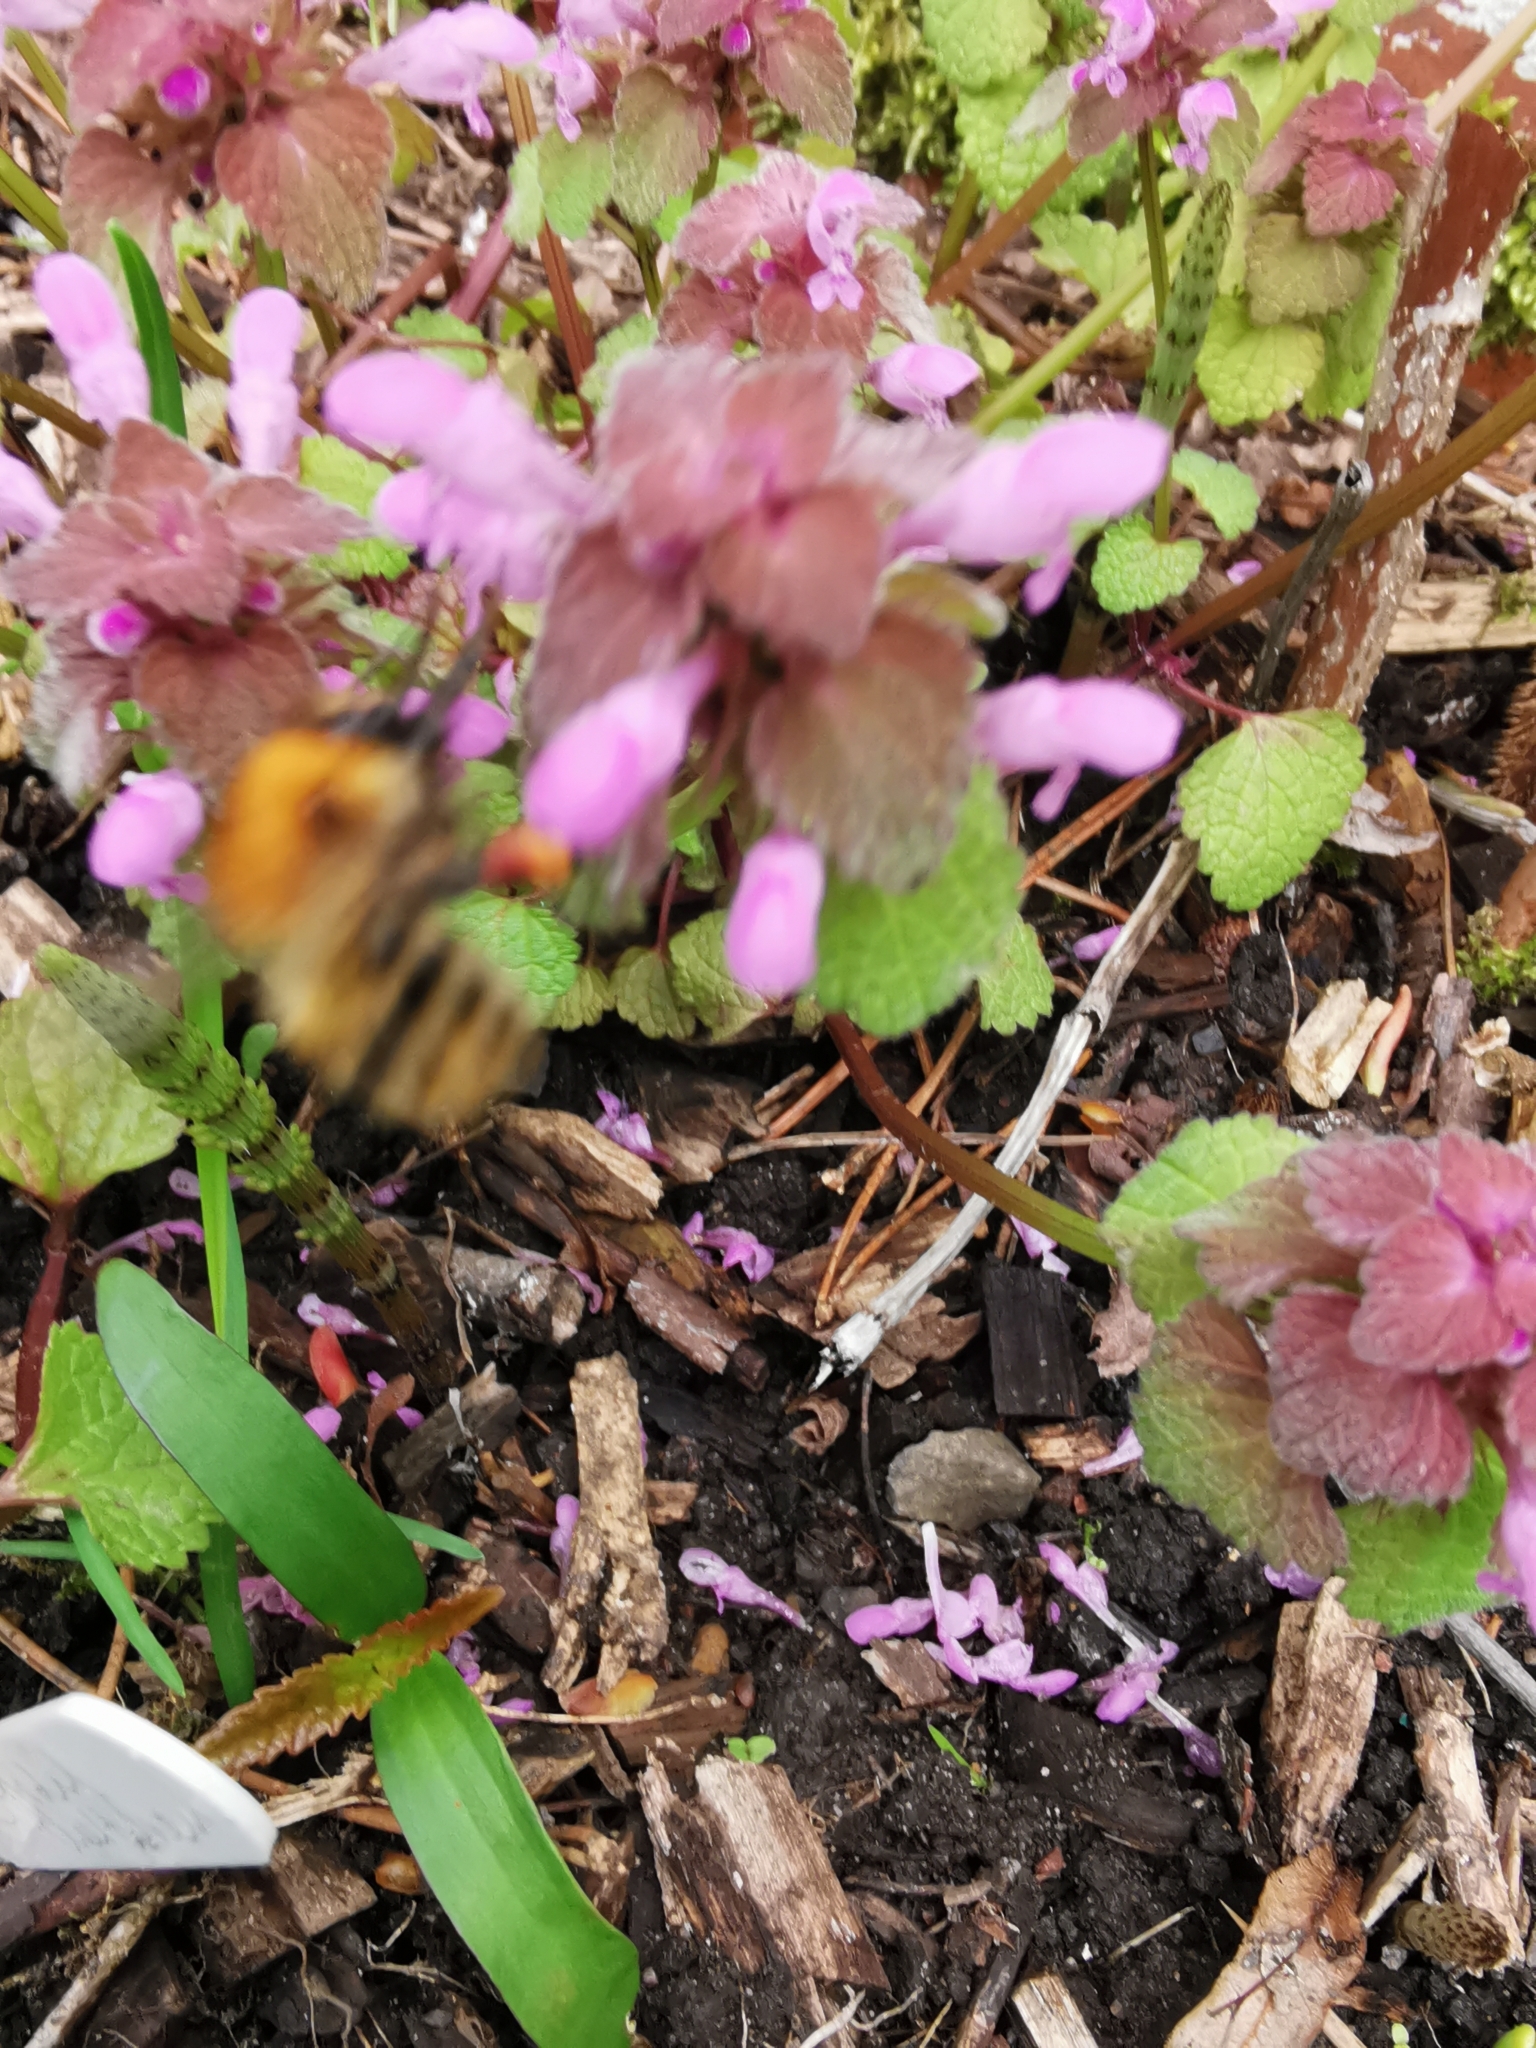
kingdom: Animalia
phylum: Arthropoda
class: Insecta
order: Hymenoptera
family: Apidae
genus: Bombus
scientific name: Bombus pascuorum
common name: Common carder bee
